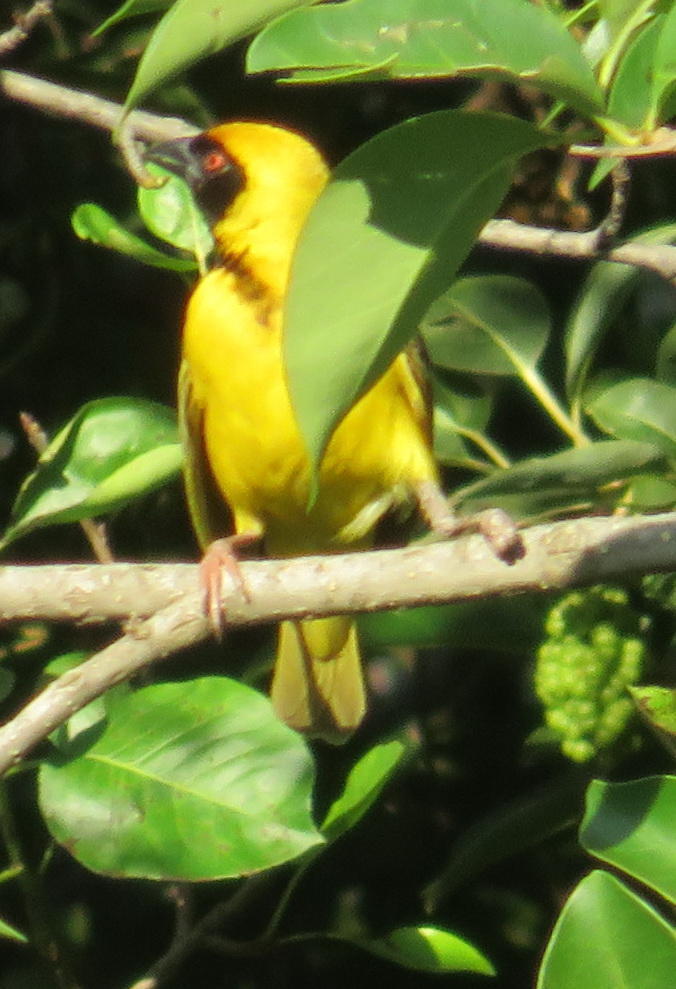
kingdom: Animalia
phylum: Chordata
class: Aves
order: Passeriformes
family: Ploceidae
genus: Ploceus
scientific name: Ploceus velatus
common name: Southern masked weaver
